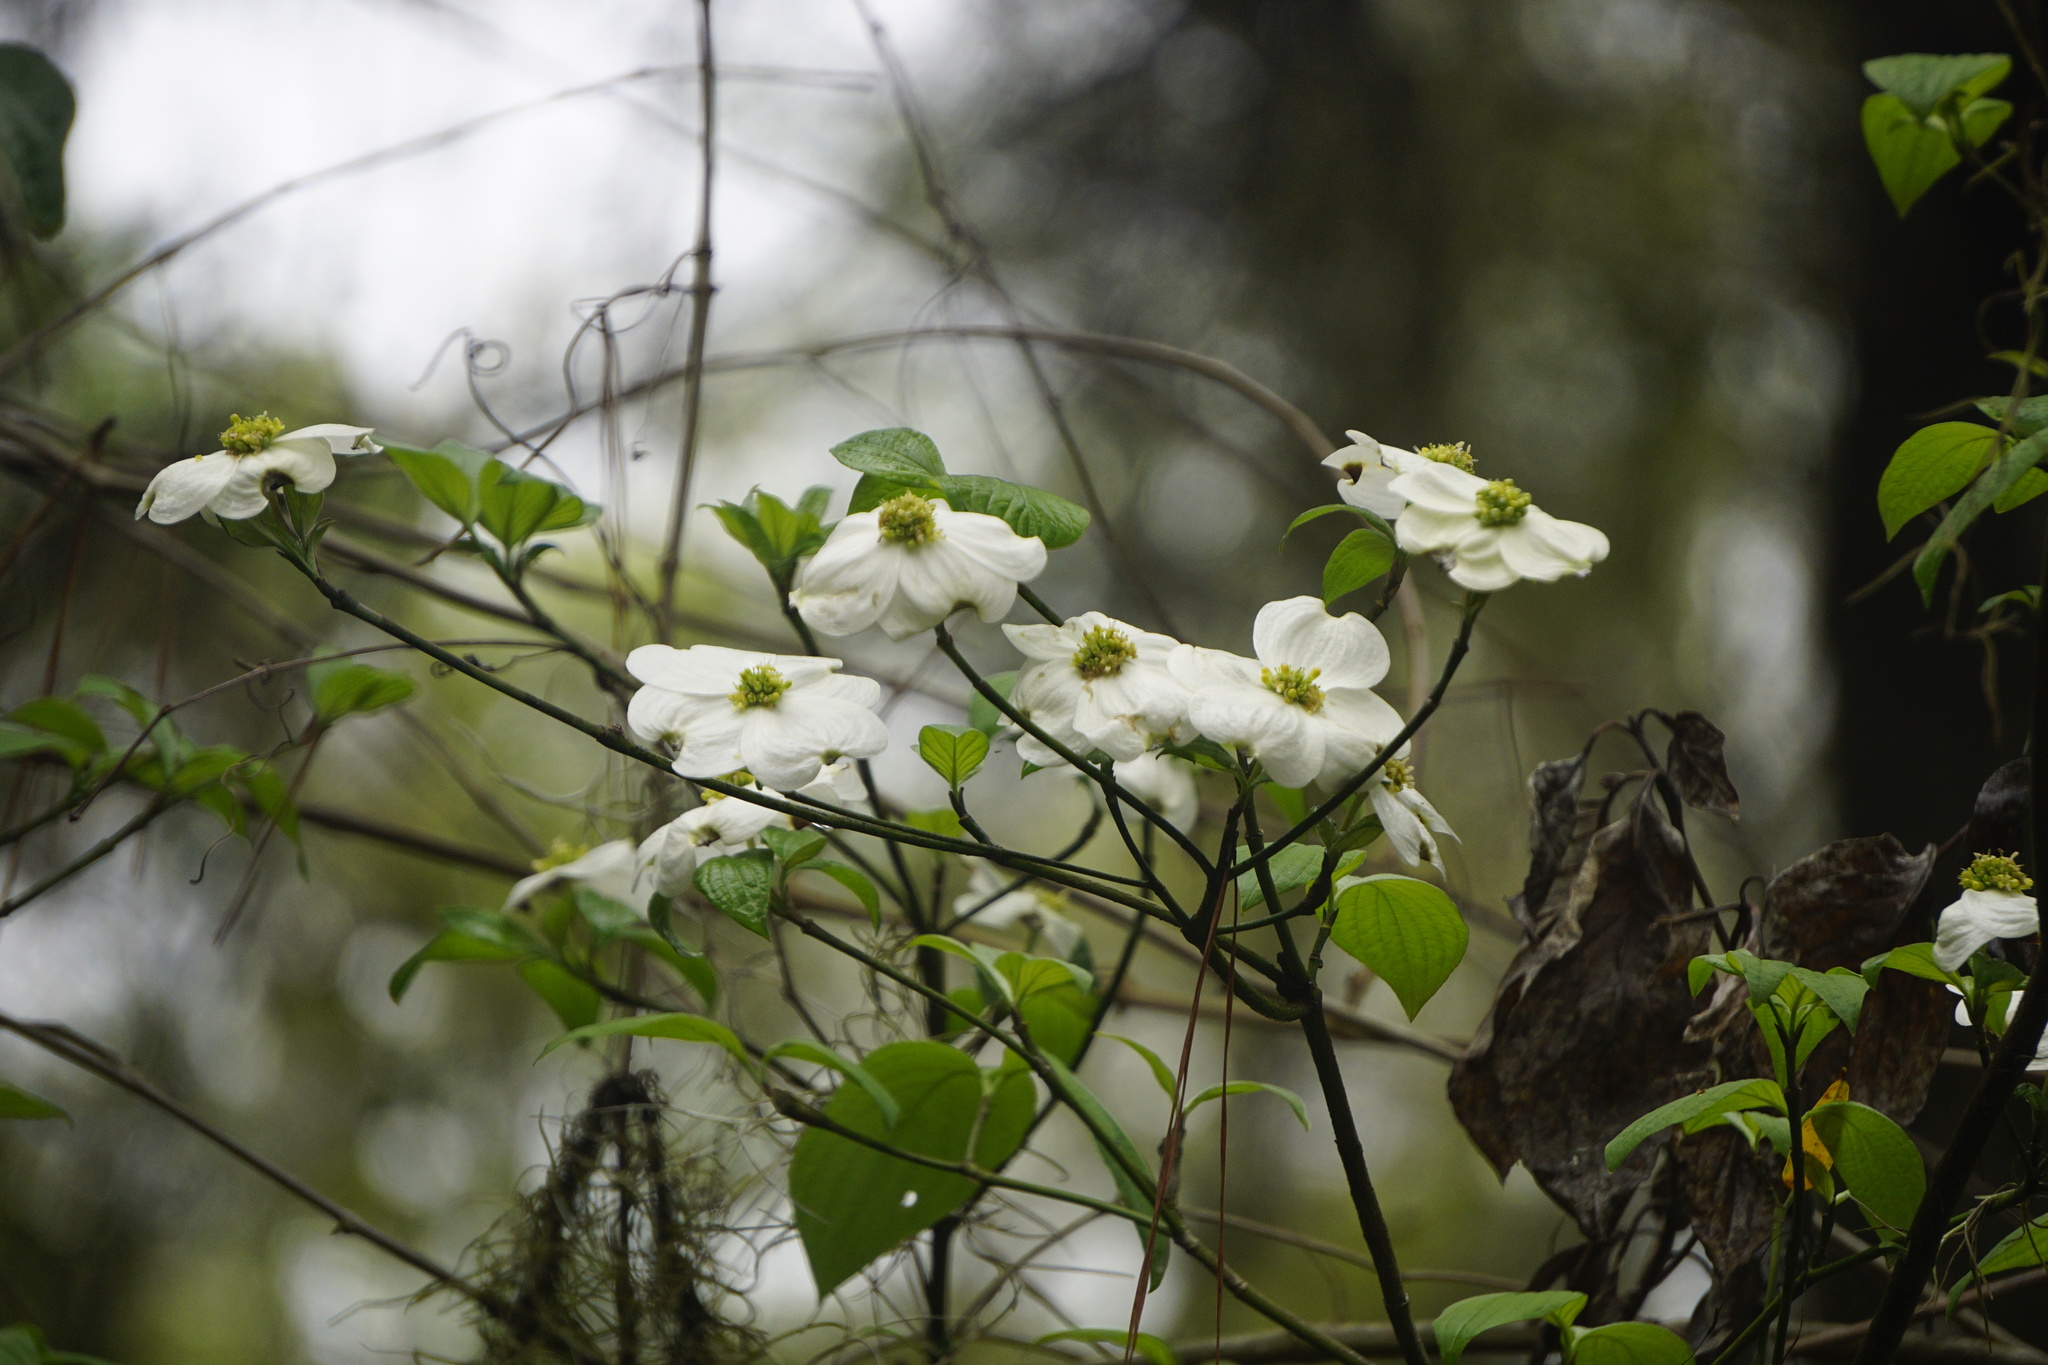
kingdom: Plantae
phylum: Tracheophyta
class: Magnoliopsida
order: Cornales
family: Cornaceae
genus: Cornus
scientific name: Cornus florida
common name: Flowering dogwood
